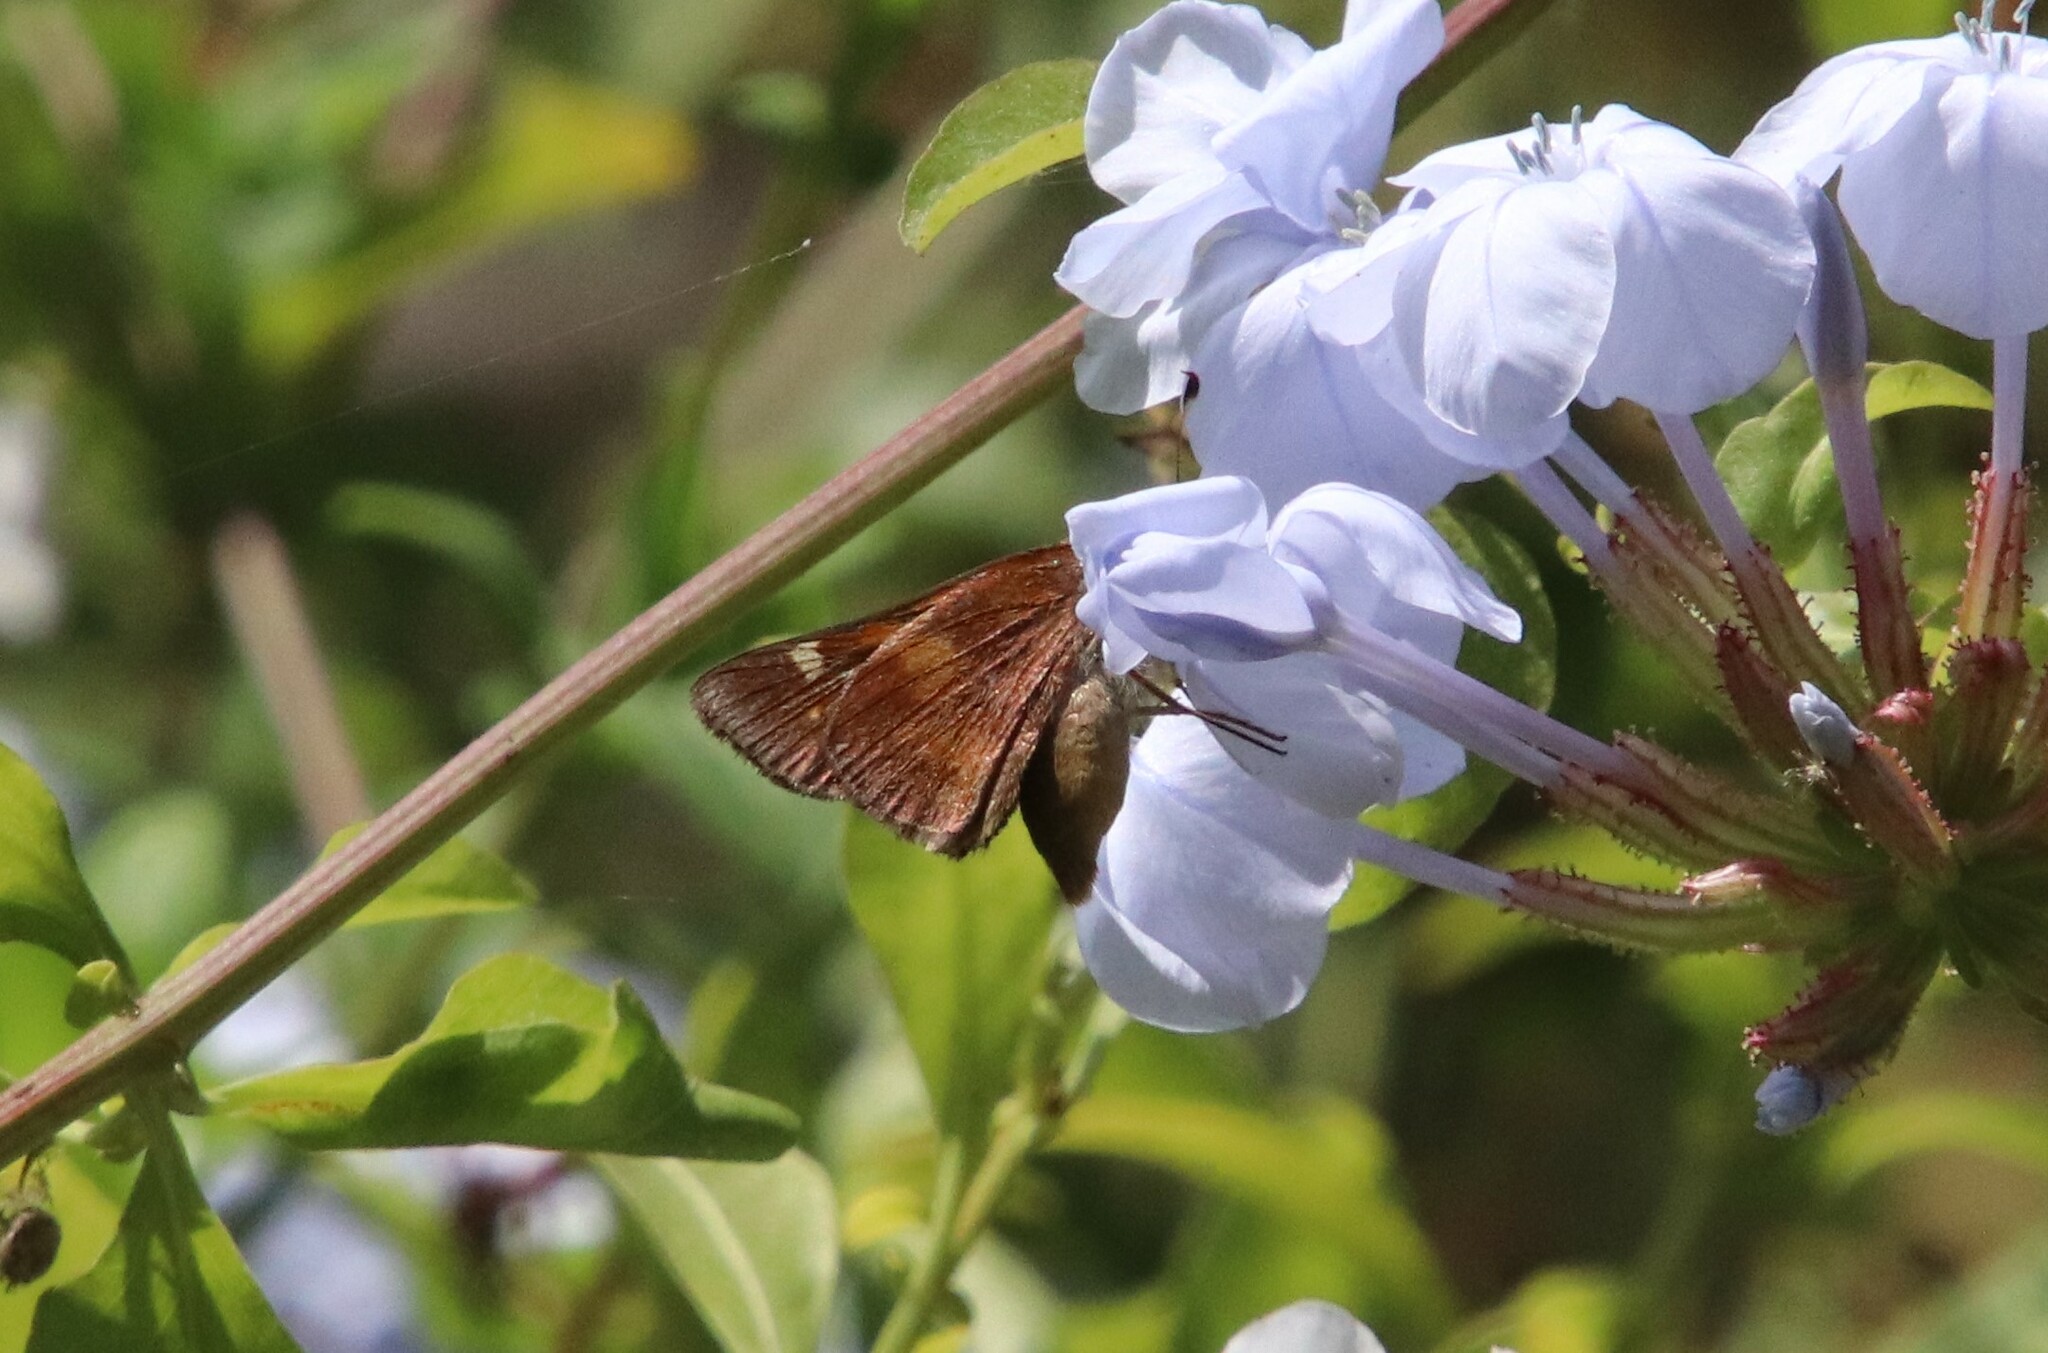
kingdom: Animalia
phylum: Arthropoda
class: Insecta
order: Lepidoptera
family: Hesperiidae
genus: Lon
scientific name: Lon melane
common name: Umber skipper
